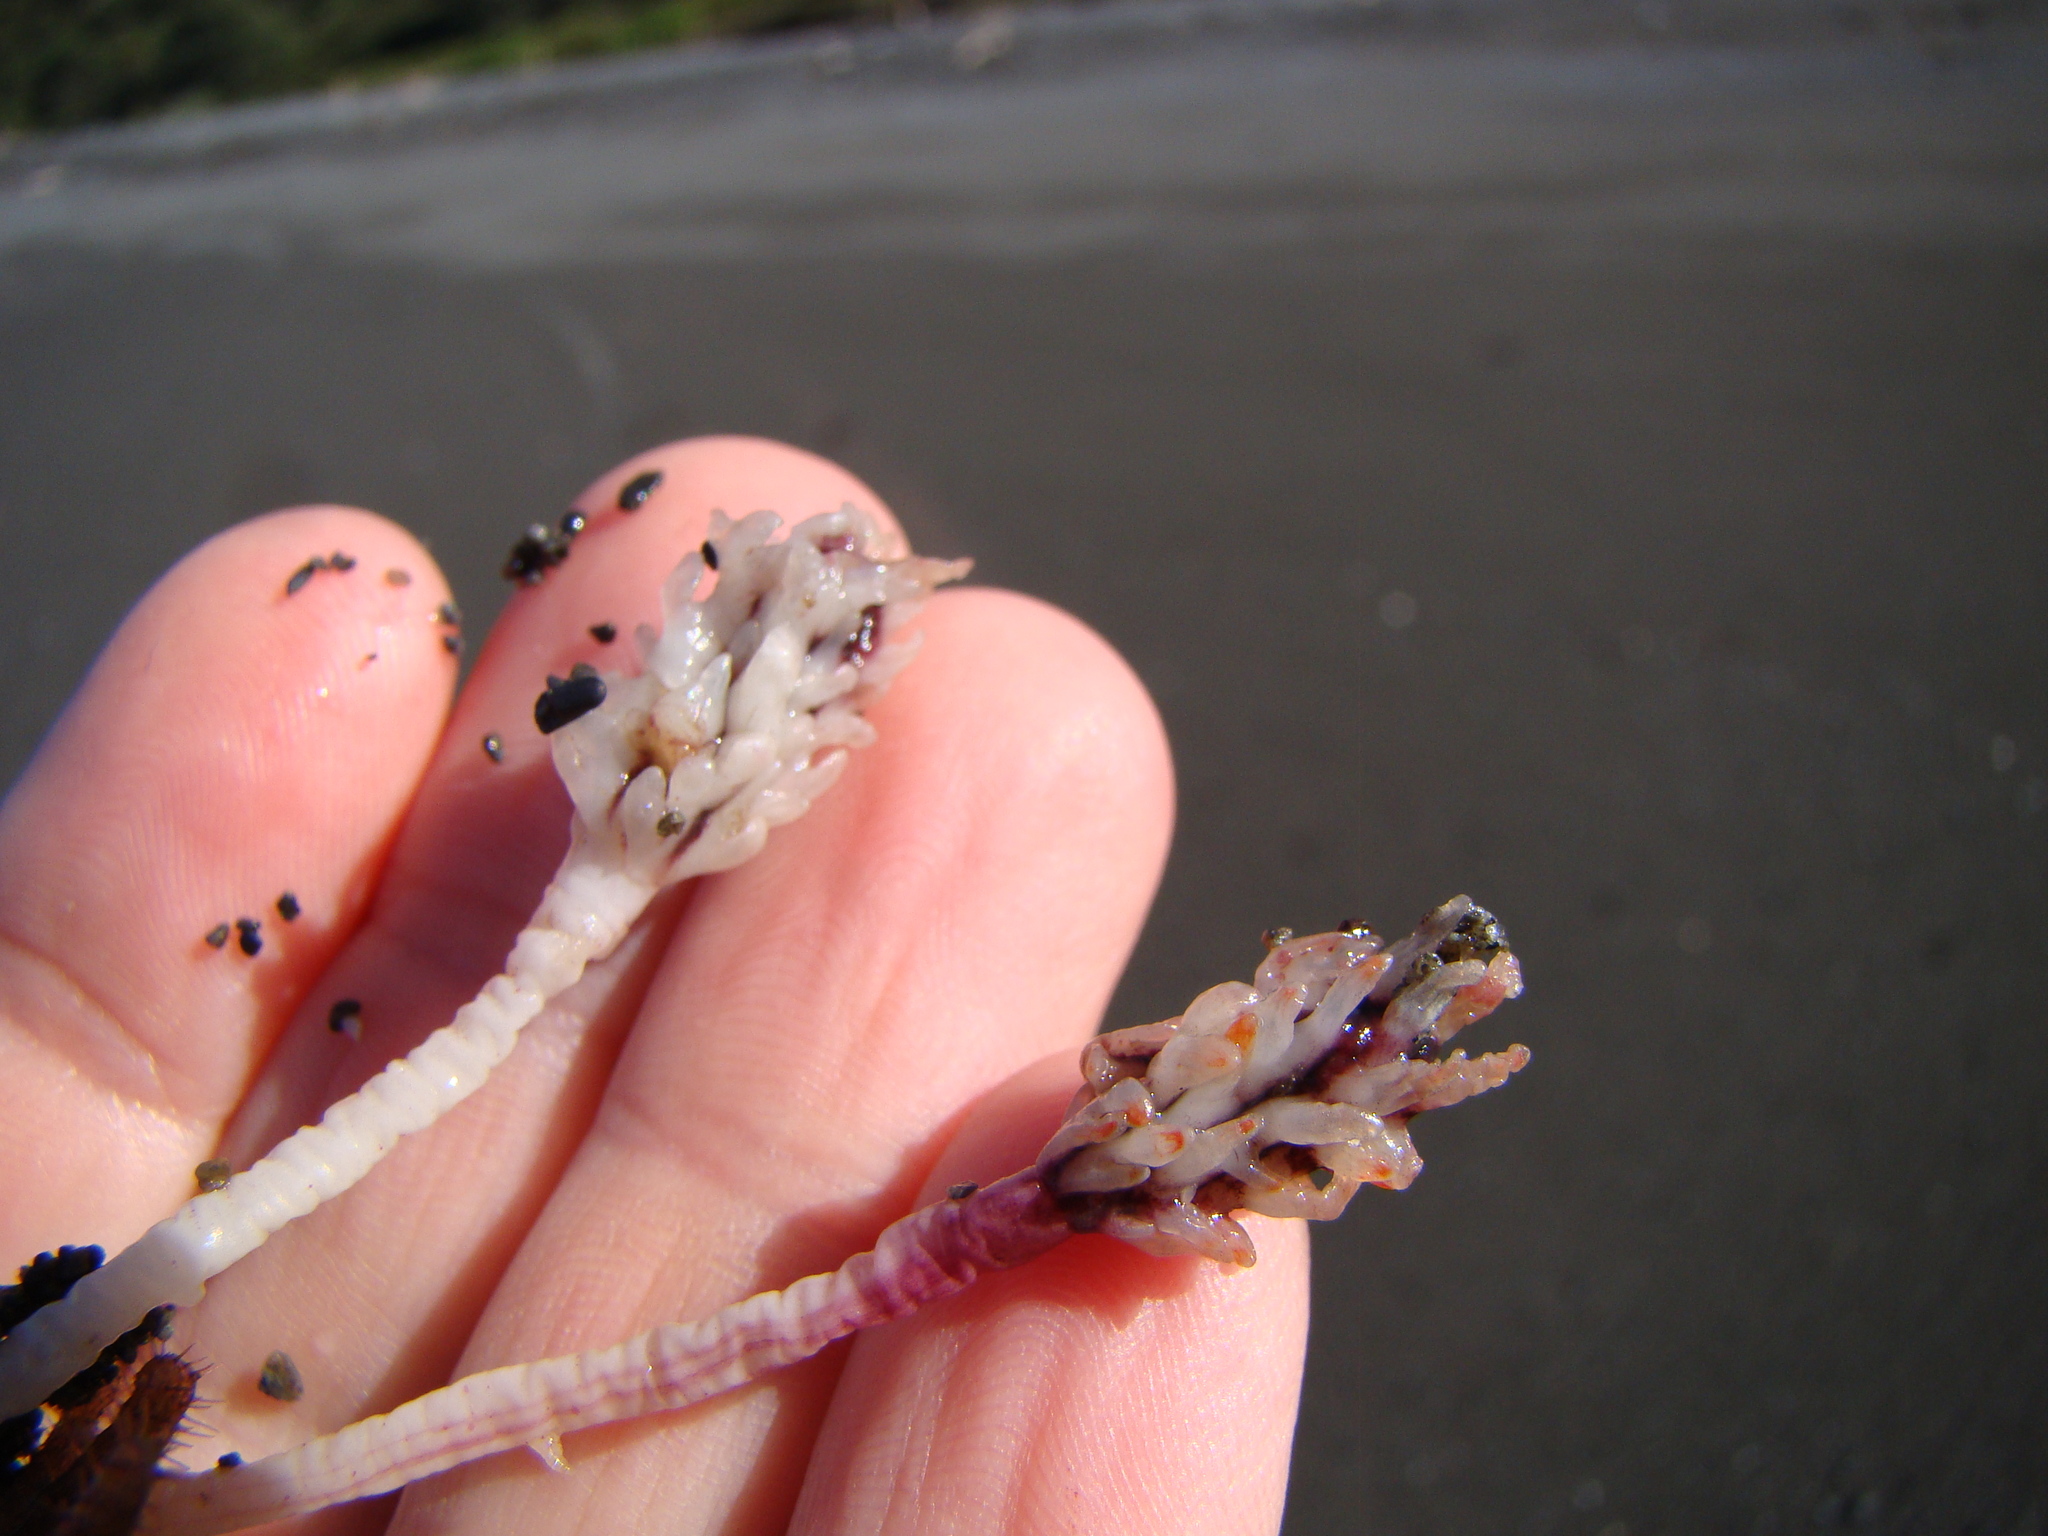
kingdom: Animalia
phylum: Chordata
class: Ascidiacea
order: Stolidobranchia
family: Pyuridae
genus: Pyura
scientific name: Pyura pachydermatina
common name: Sea tulip
